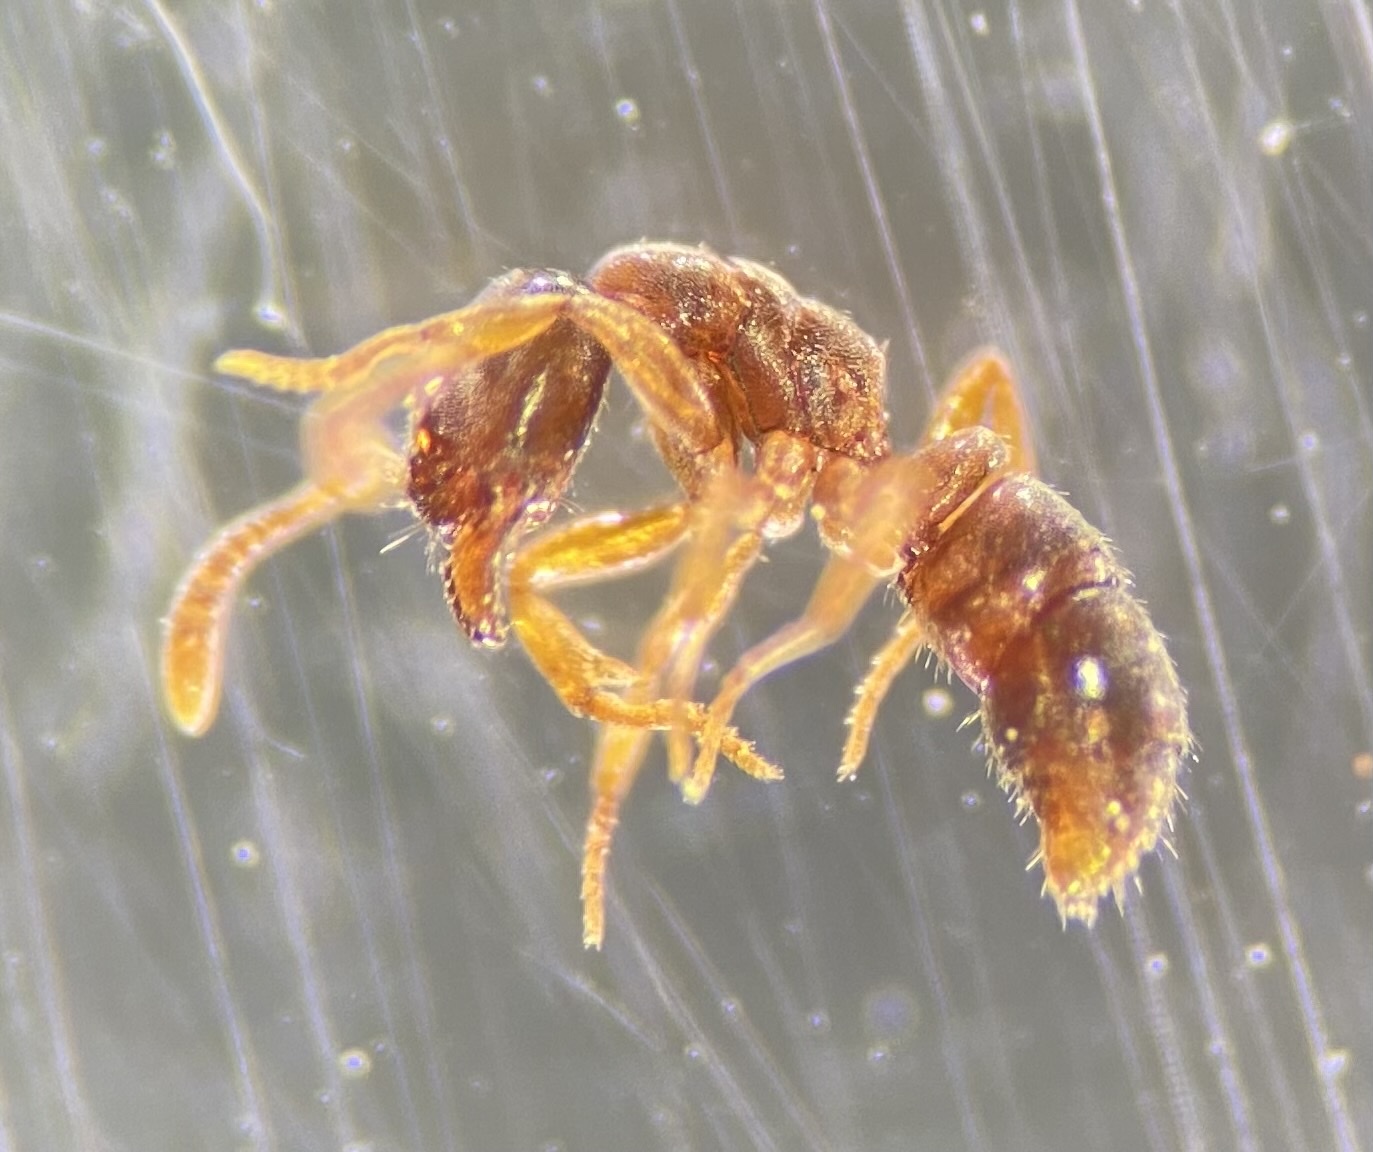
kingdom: Animalia
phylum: Arthropoda
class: Insecta
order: Hymenoptera
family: Formicidae
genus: Hypoponera
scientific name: Hypoponera opacior
